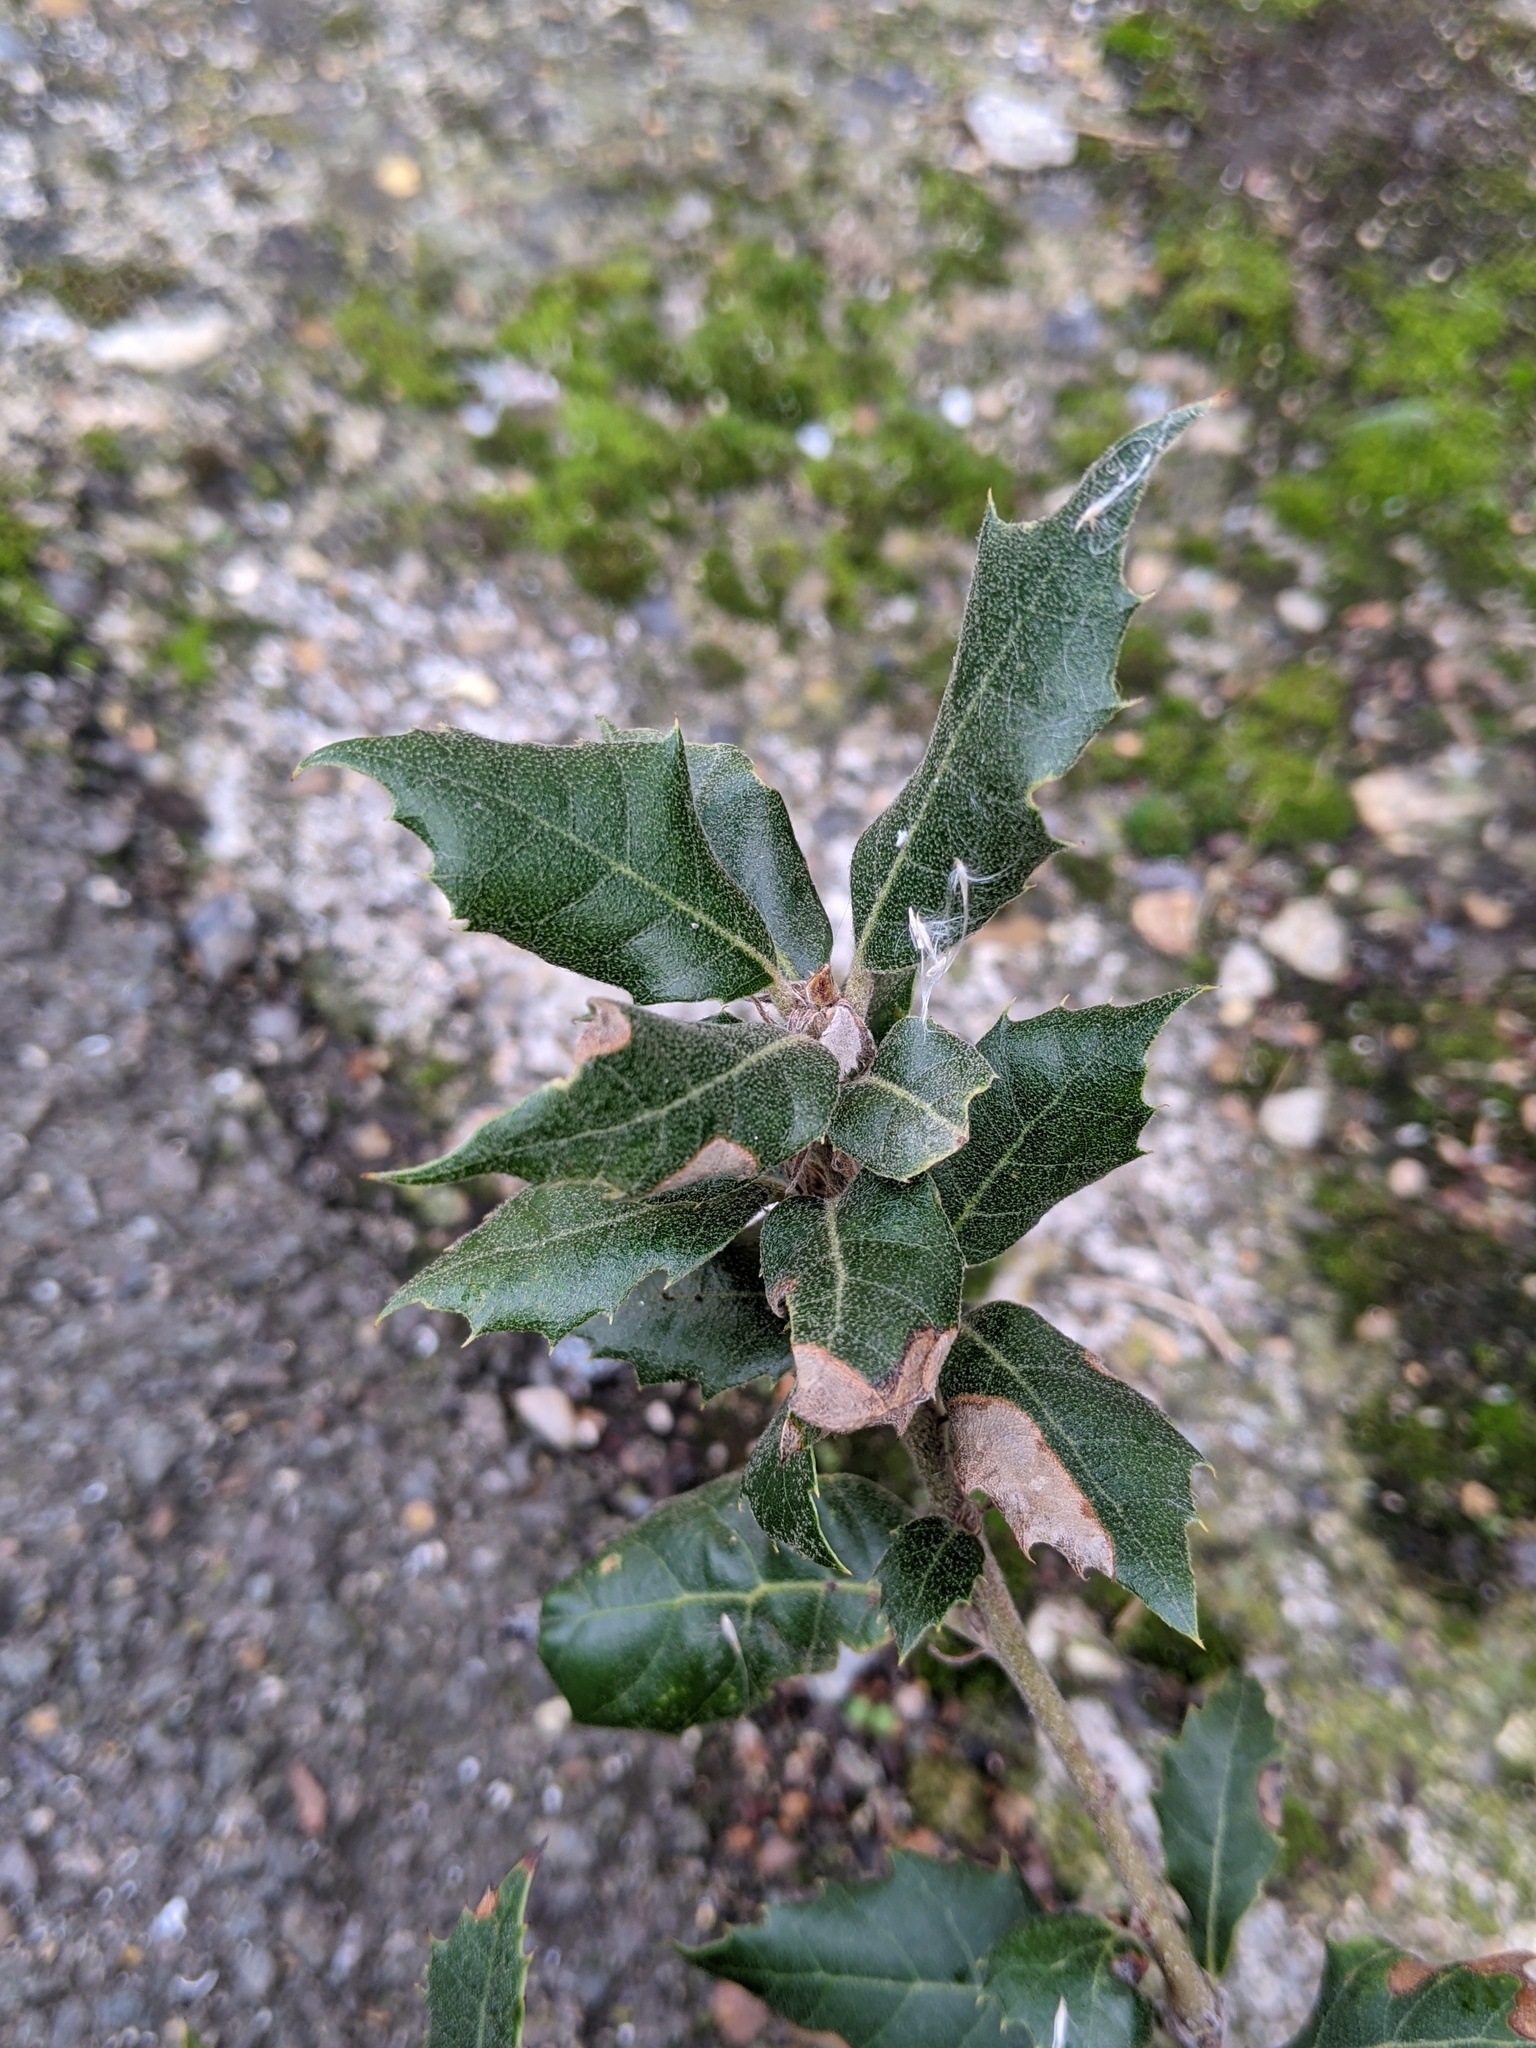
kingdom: Plantae
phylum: Tracheophyta
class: Magnoliopsida
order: Fagales
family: Fagaceae
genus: Quercus
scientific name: Quercus ilex
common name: Evergreen oak
